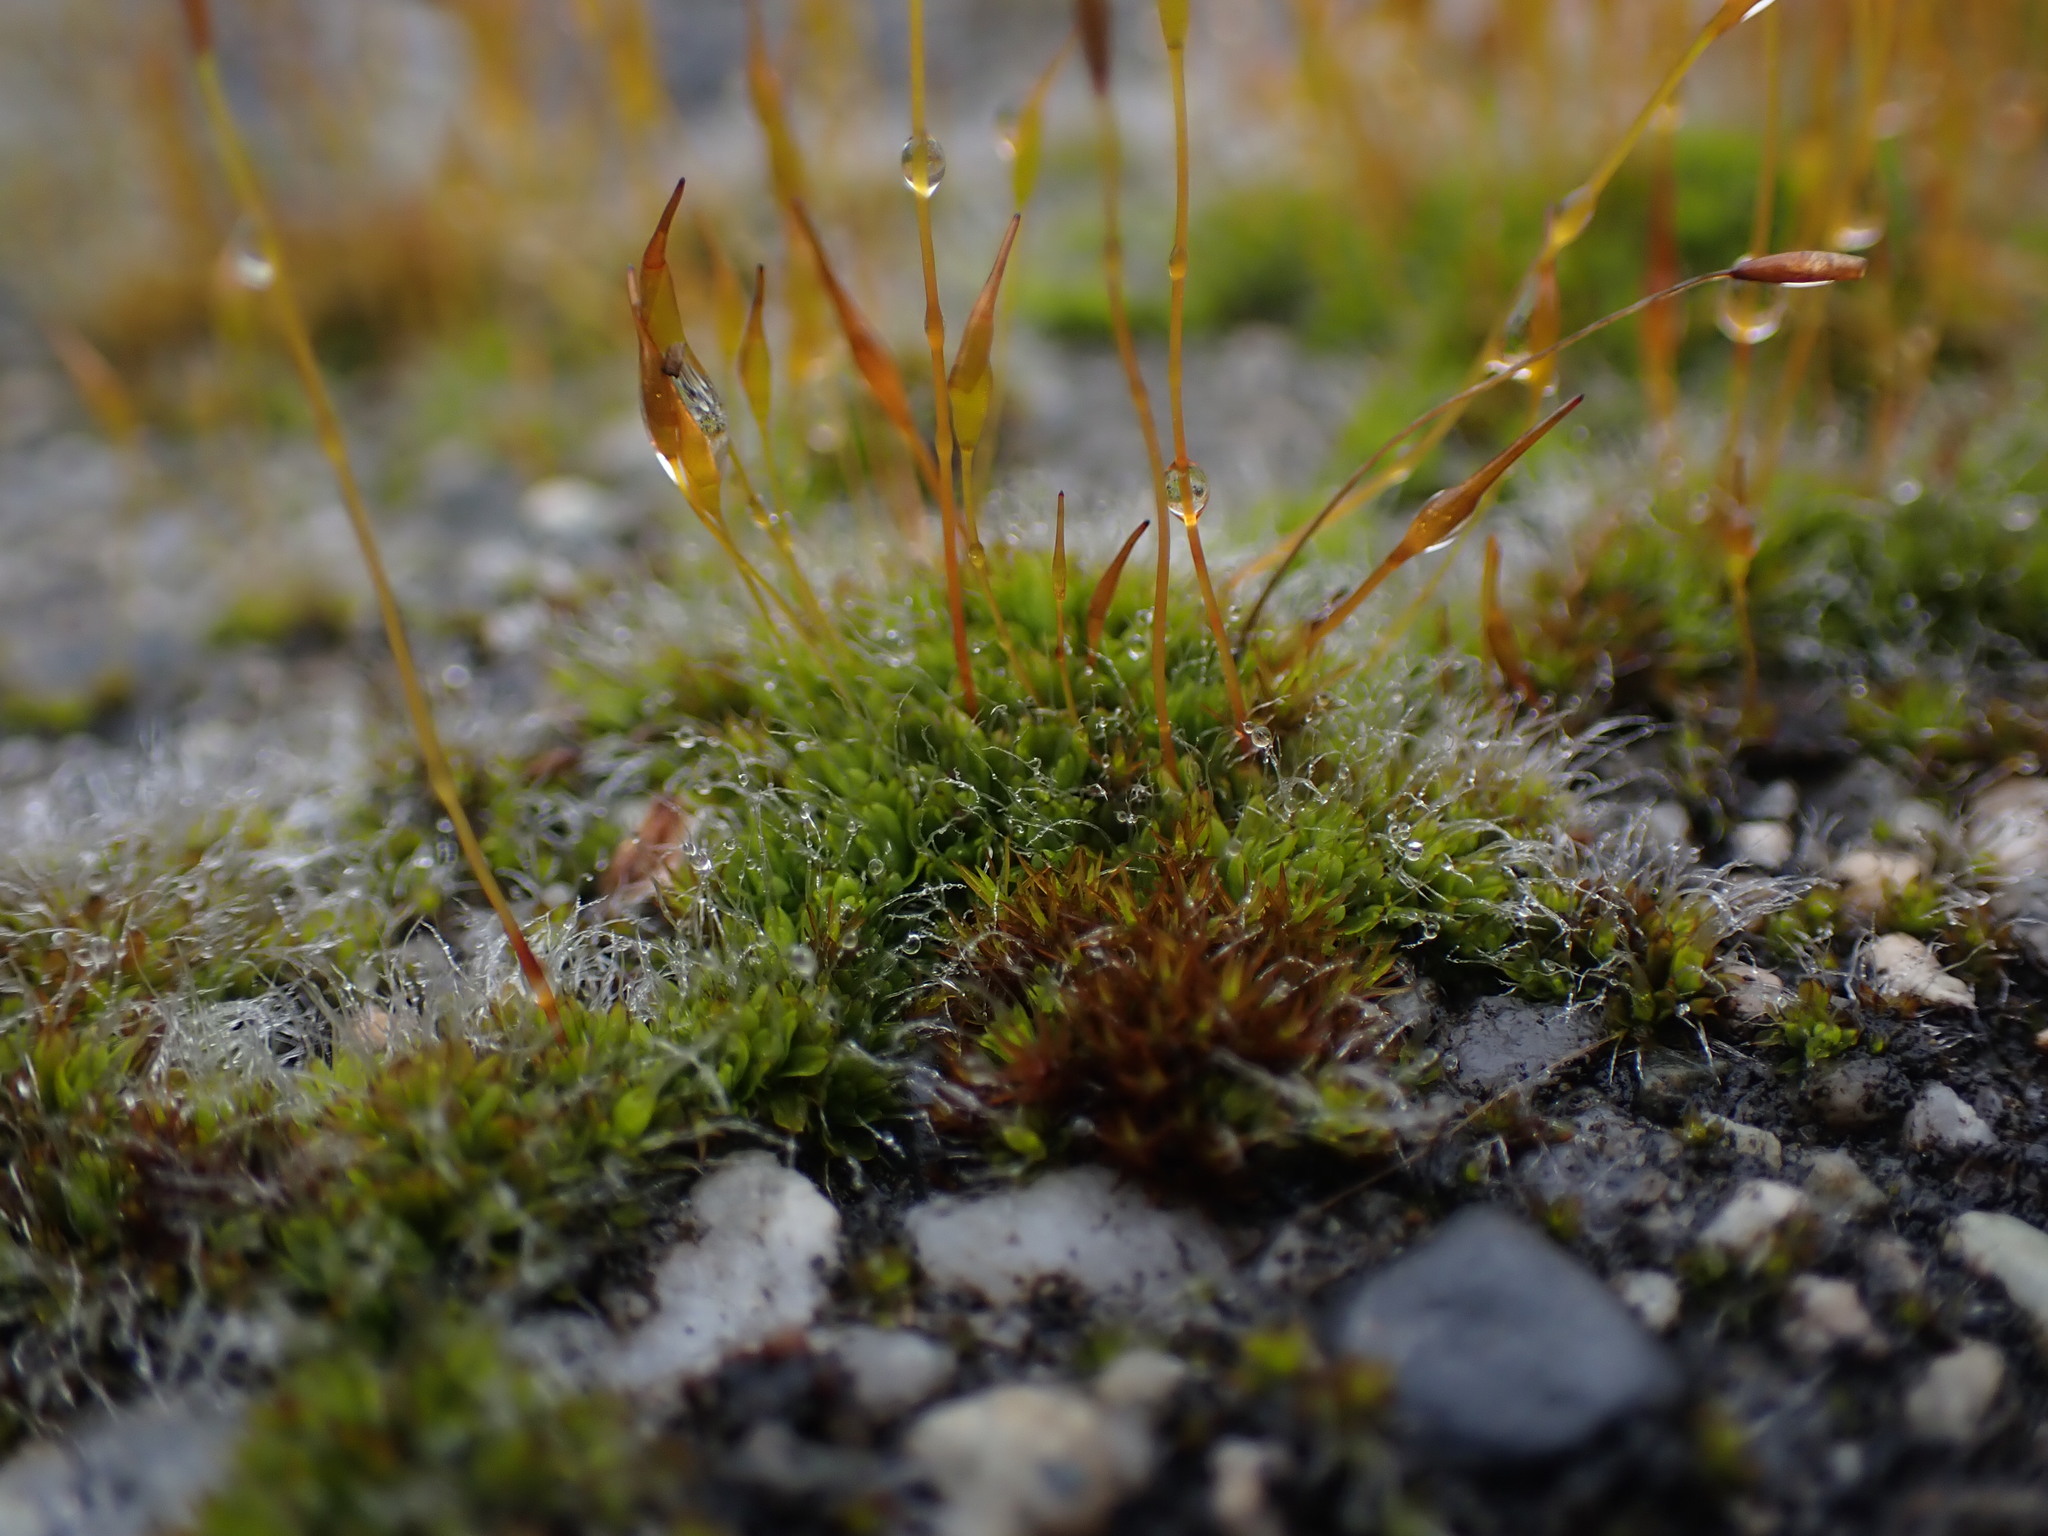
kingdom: Plantae
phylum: Bryophyta
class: Bryopsida
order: Pottiales
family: Pottiaceae
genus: Tortula
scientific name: Tortula muralis
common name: Wall screw-moss
